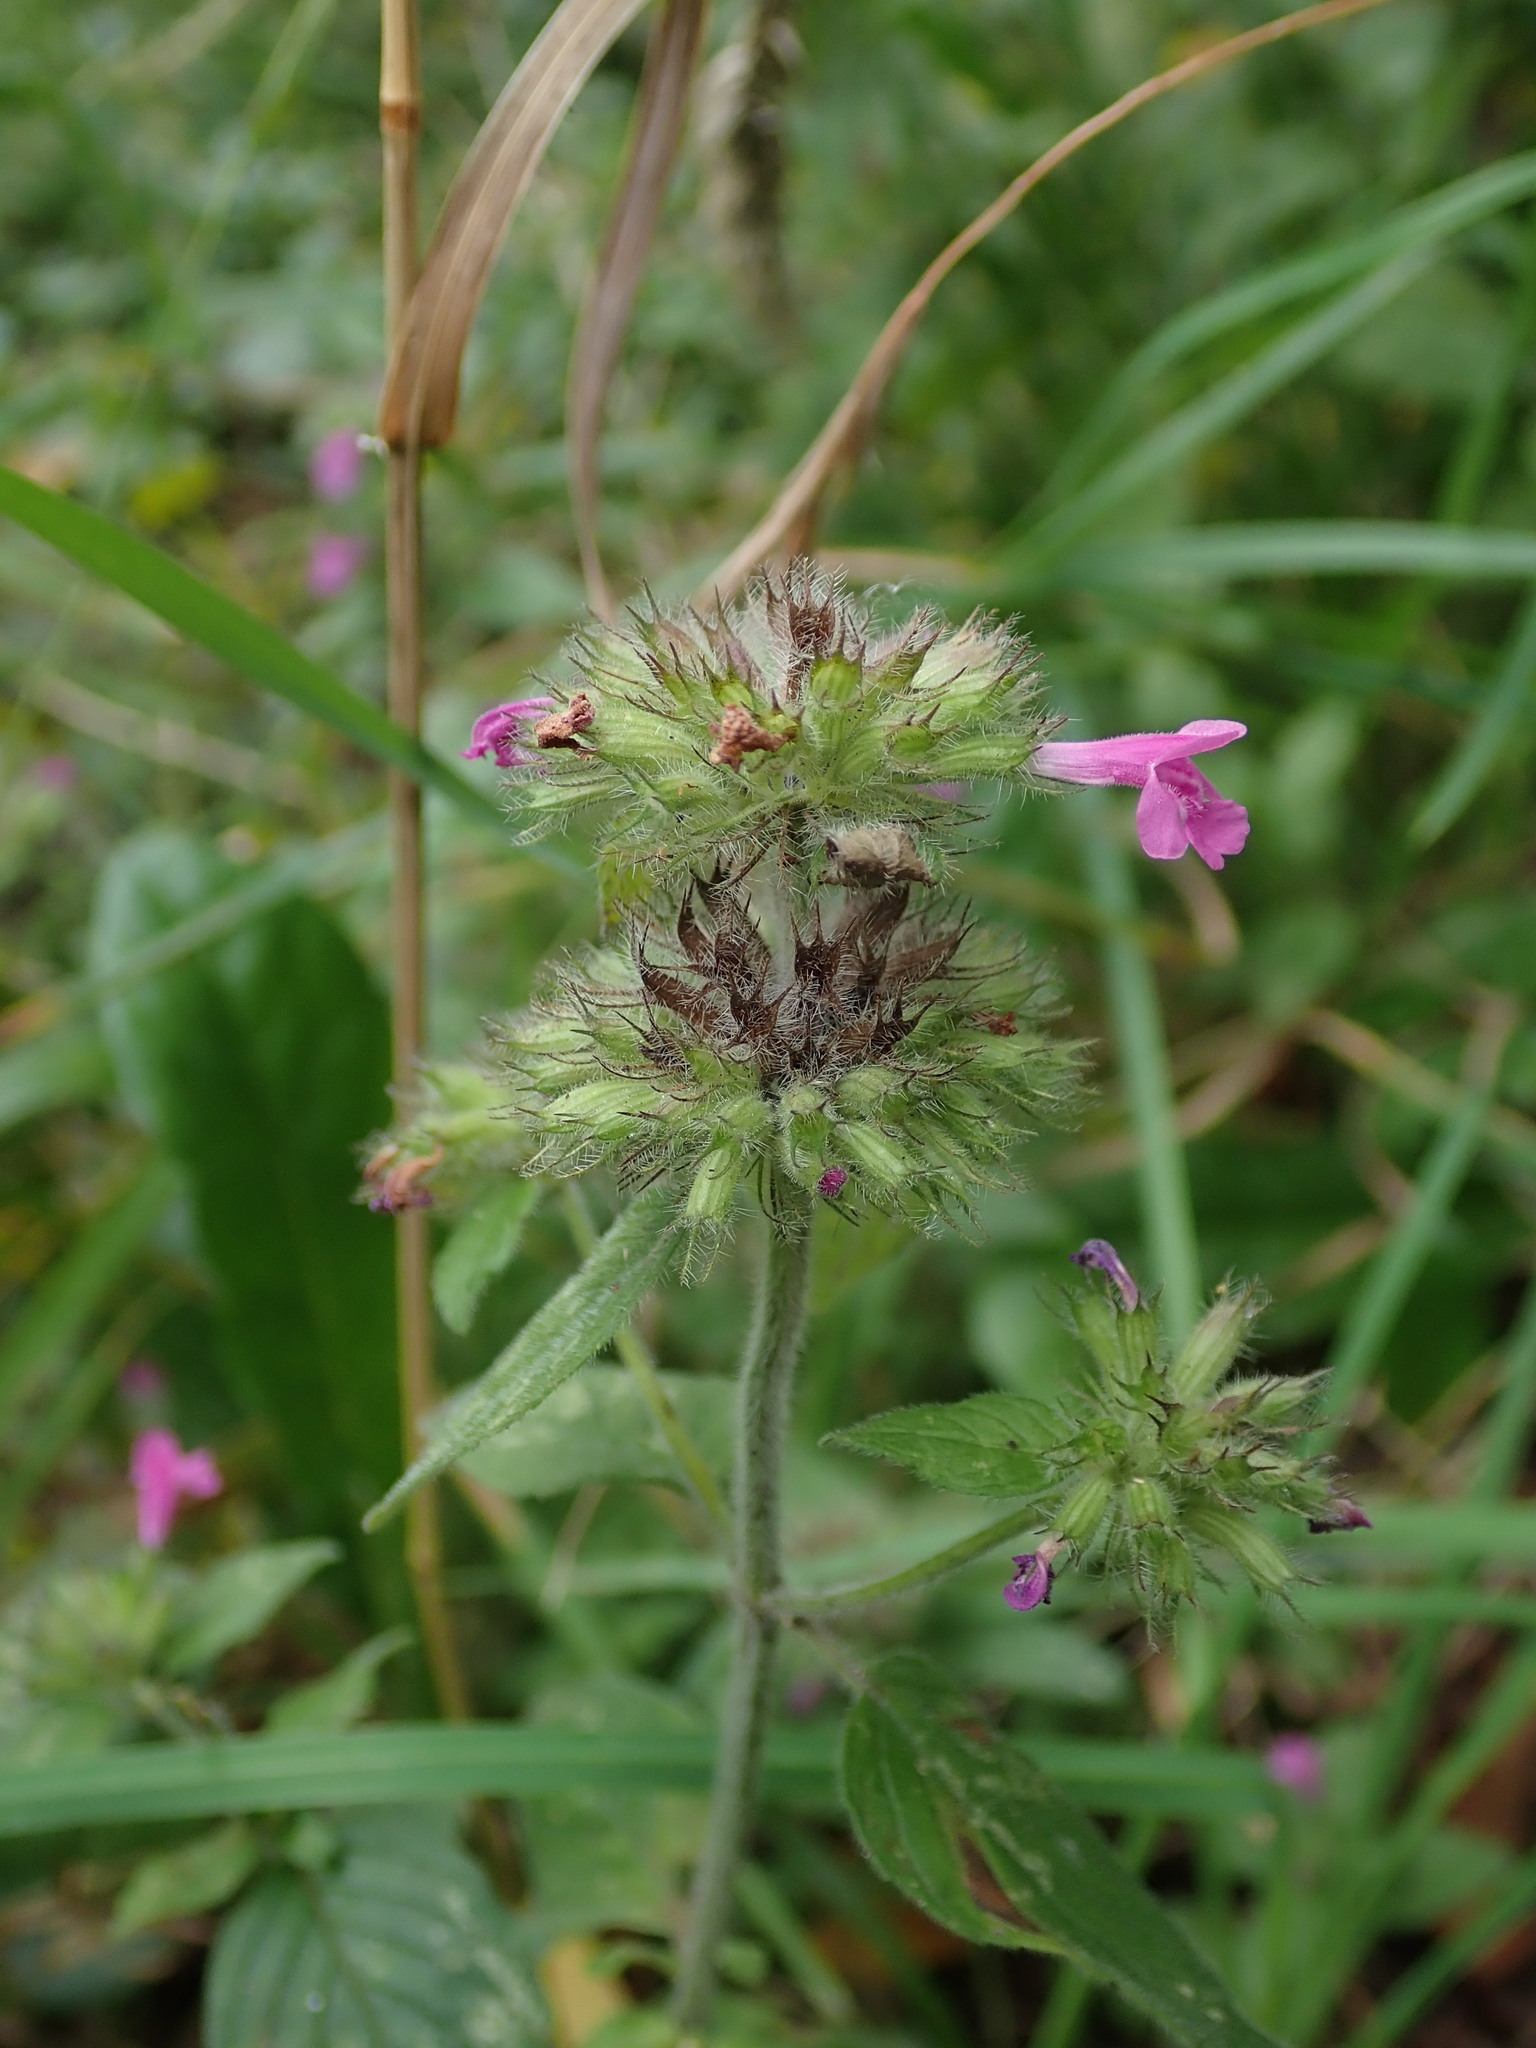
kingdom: Plantae
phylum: Tracheophyta
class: Magnoliopsida
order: Lamiales
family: Lamiaceae
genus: Clinopodium
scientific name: Clinopodium vulgare
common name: Wild basil
